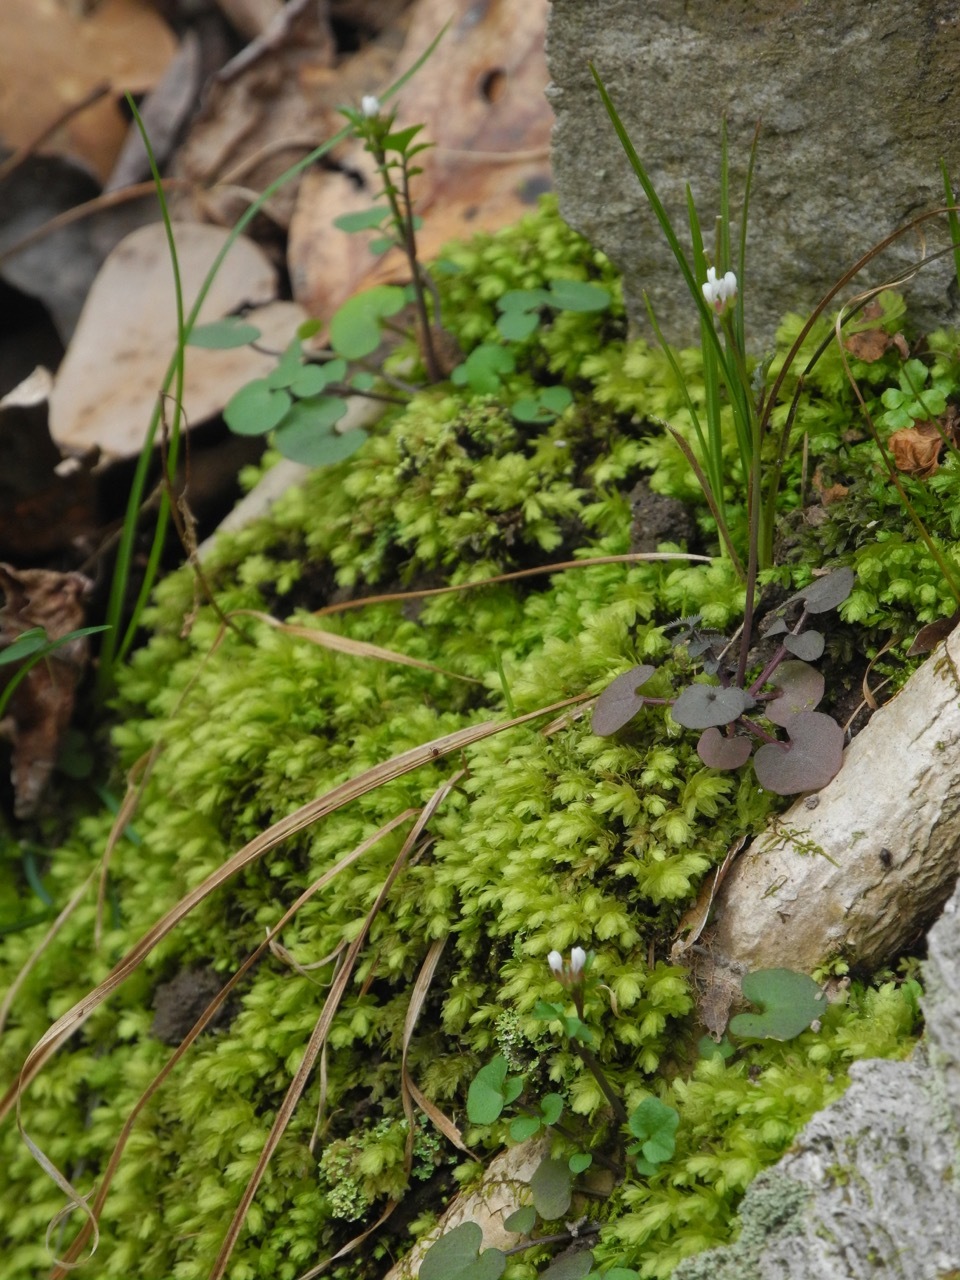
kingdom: Plantae
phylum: Tracheophyta
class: Magnoliopsida
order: Brassicales
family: Brassicaceae
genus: Cardamine
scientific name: Cardamine hirsuta
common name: Hairy bittercress
